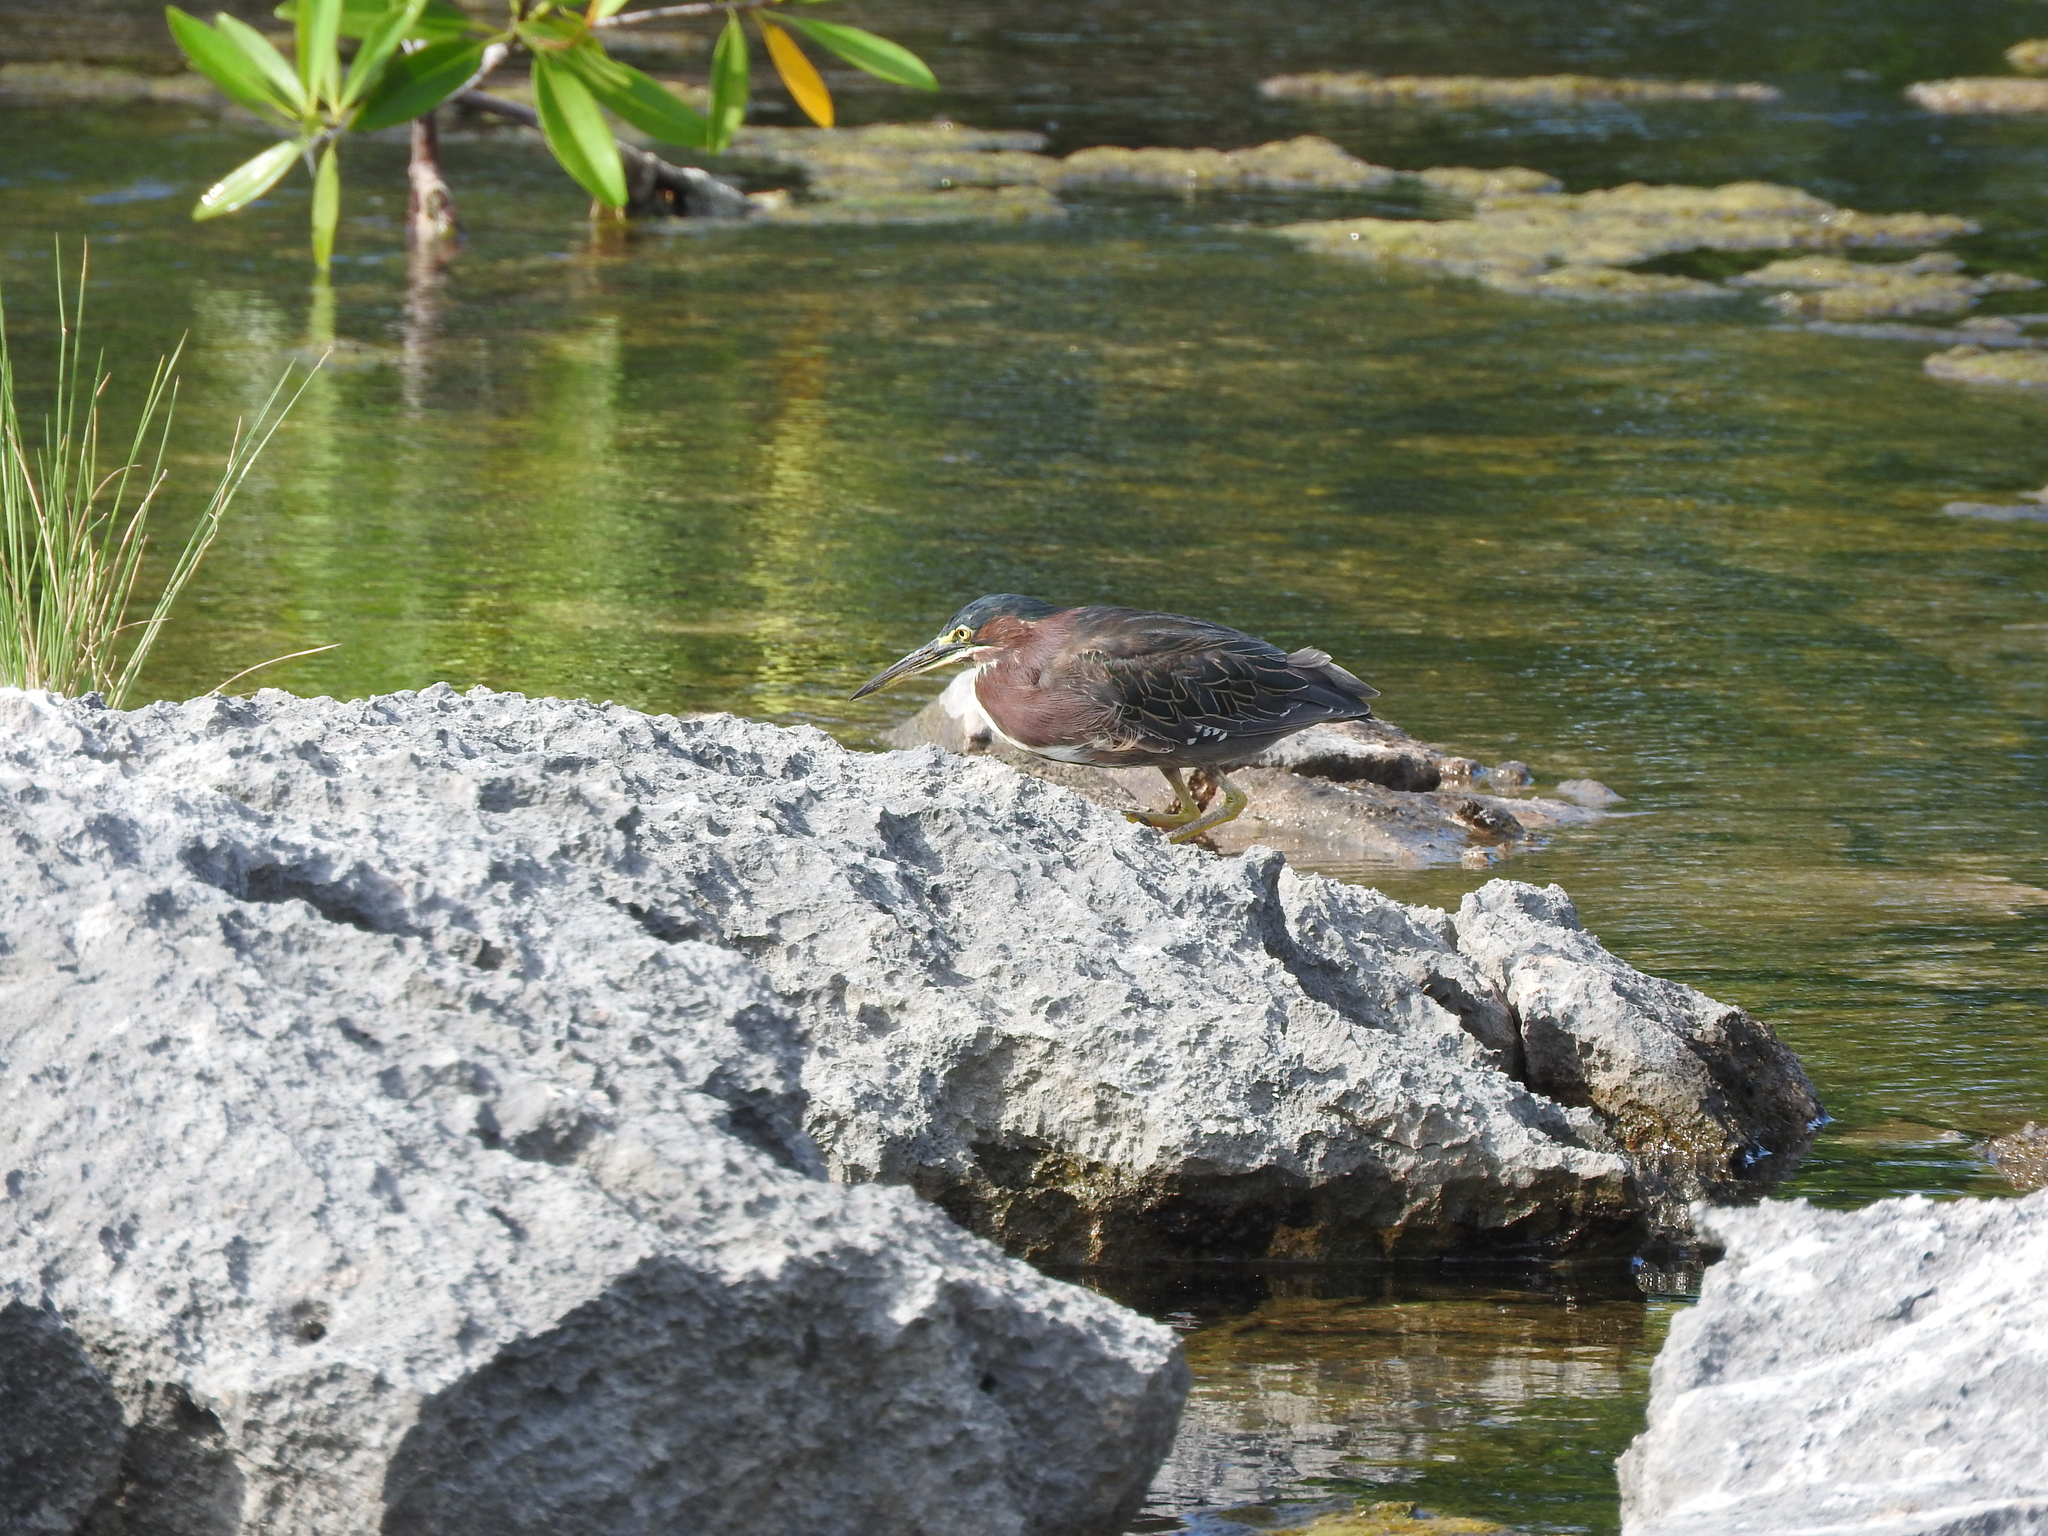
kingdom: Animalia
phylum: Chordata
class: Aves
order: Pelecaniformes
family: Ardeidae
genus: Butorides
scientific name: Butorides virescens
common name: Green heron
